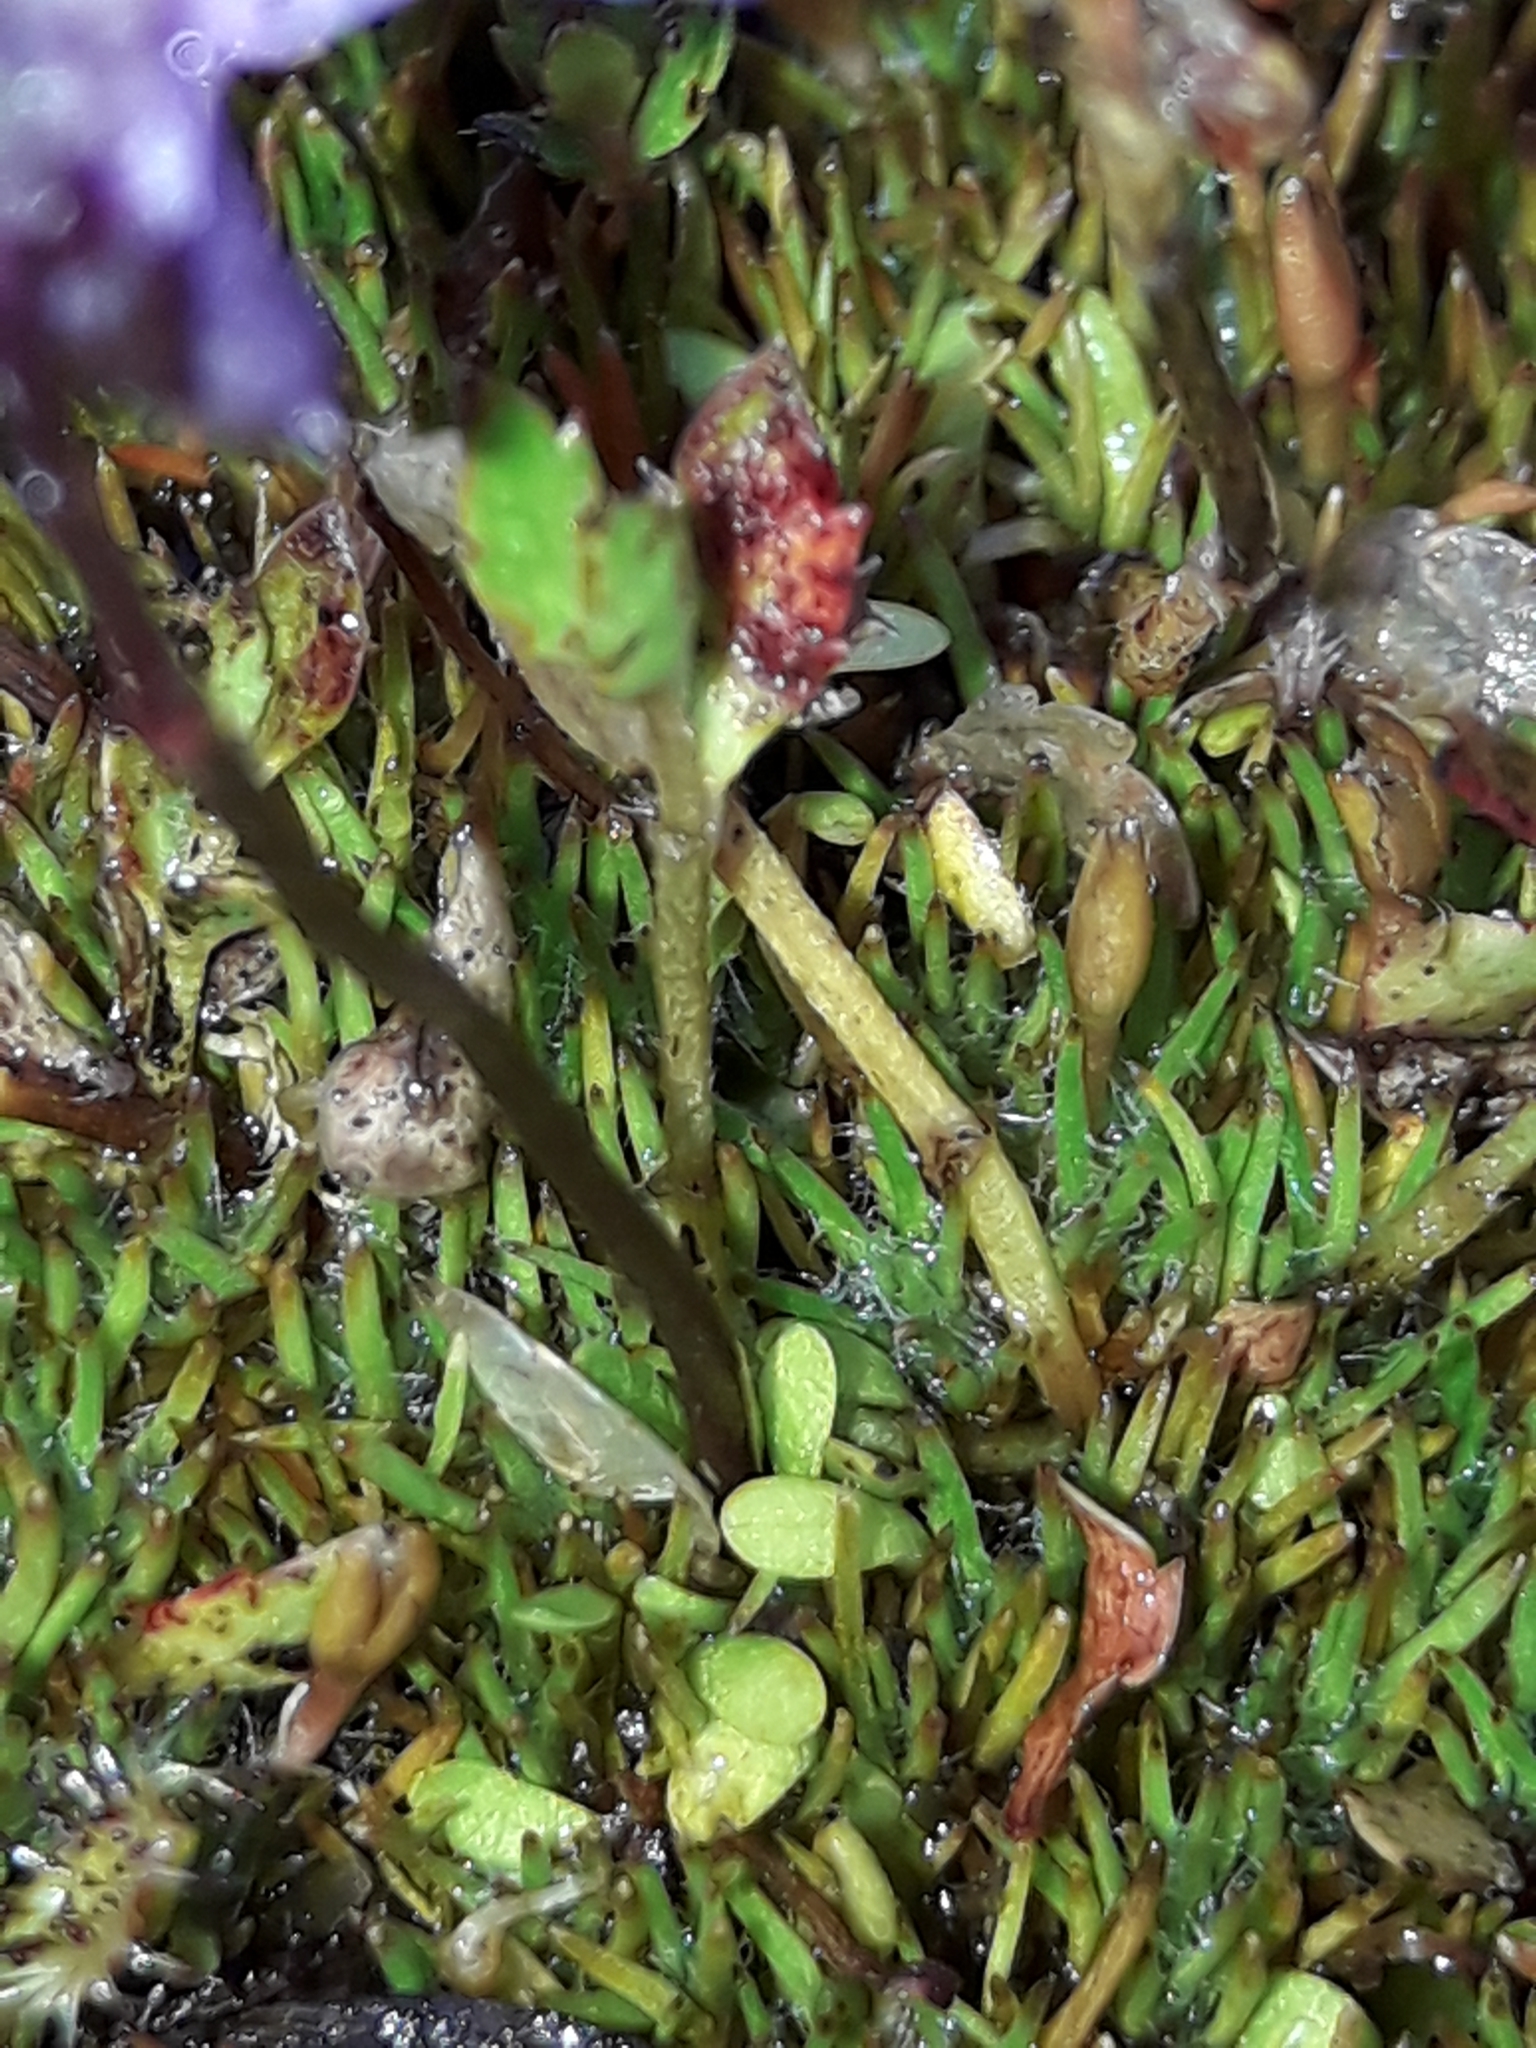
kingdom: Plantae
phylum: Tracheophyta
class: Magnoliopsida
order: Lamiales
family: Lentibulariaceae
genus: Utricularia
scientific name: Utricularia dichotoma
